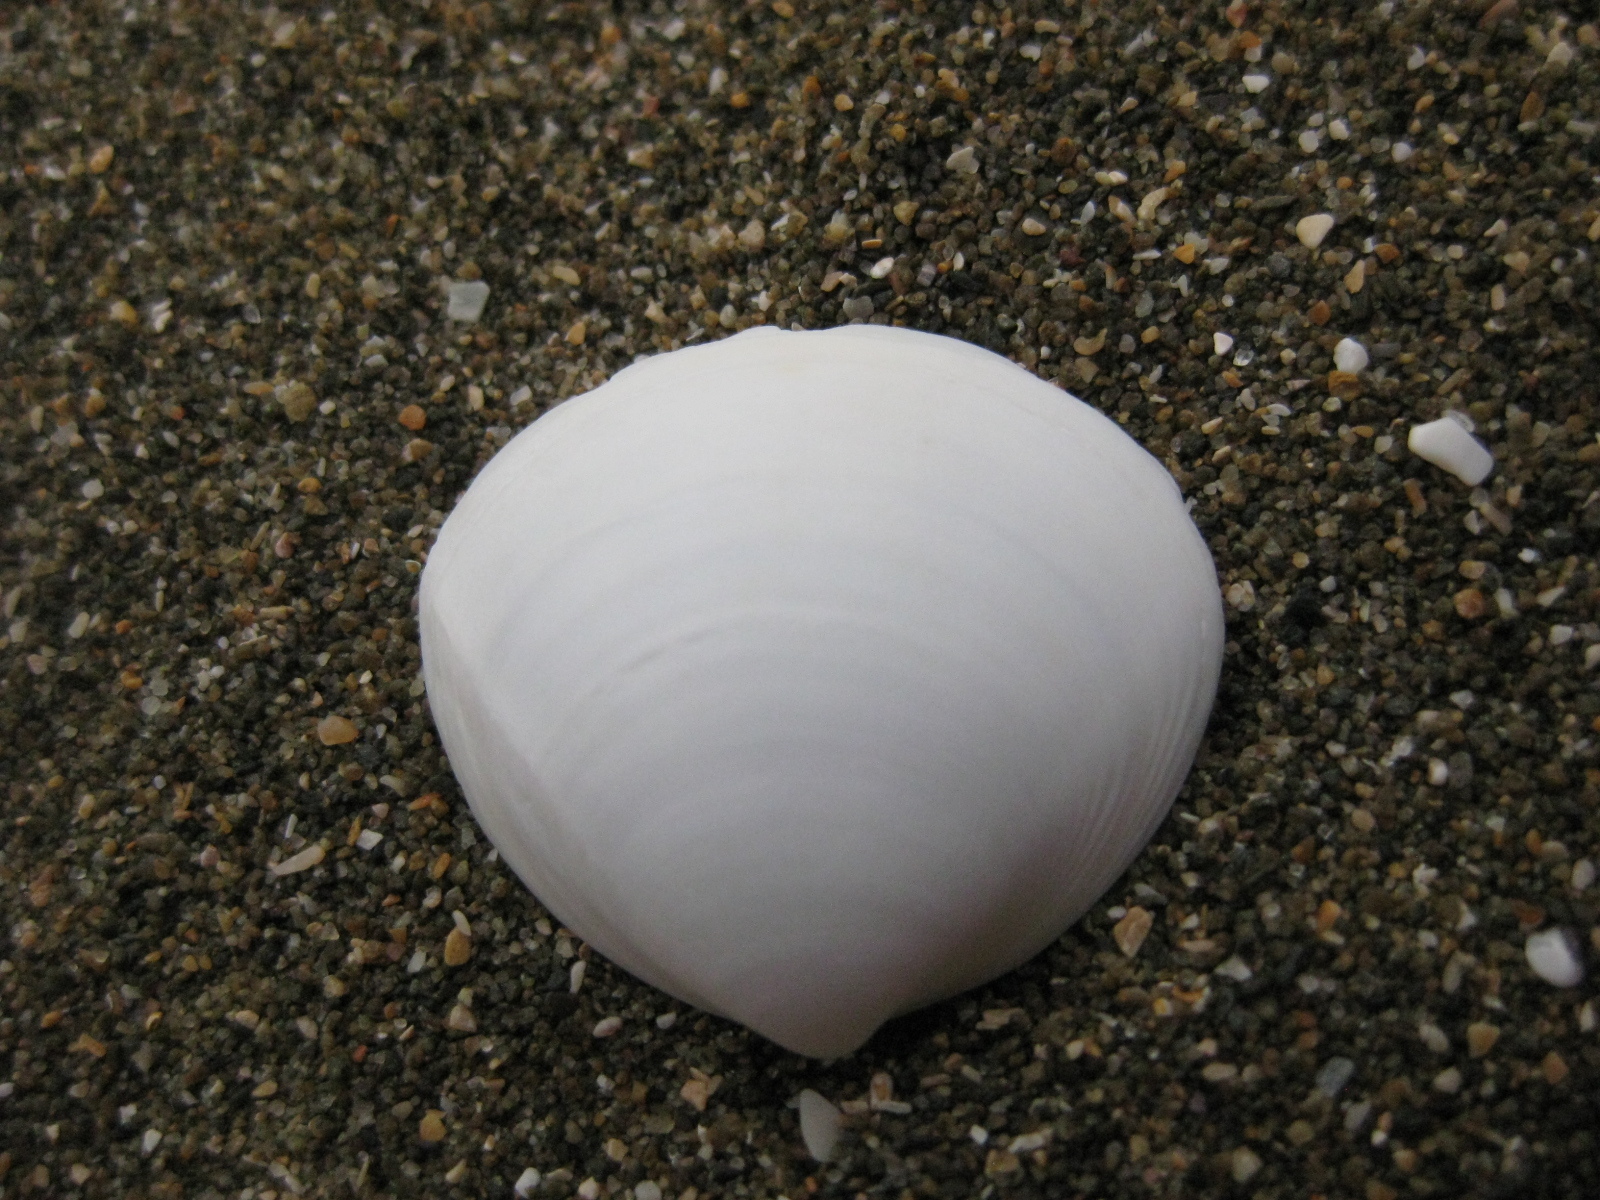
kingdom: Animalia
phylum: Mollusca
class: Bivalvia
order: Venerida
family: Mactridae
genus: Spisula
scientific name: Spisula discors
